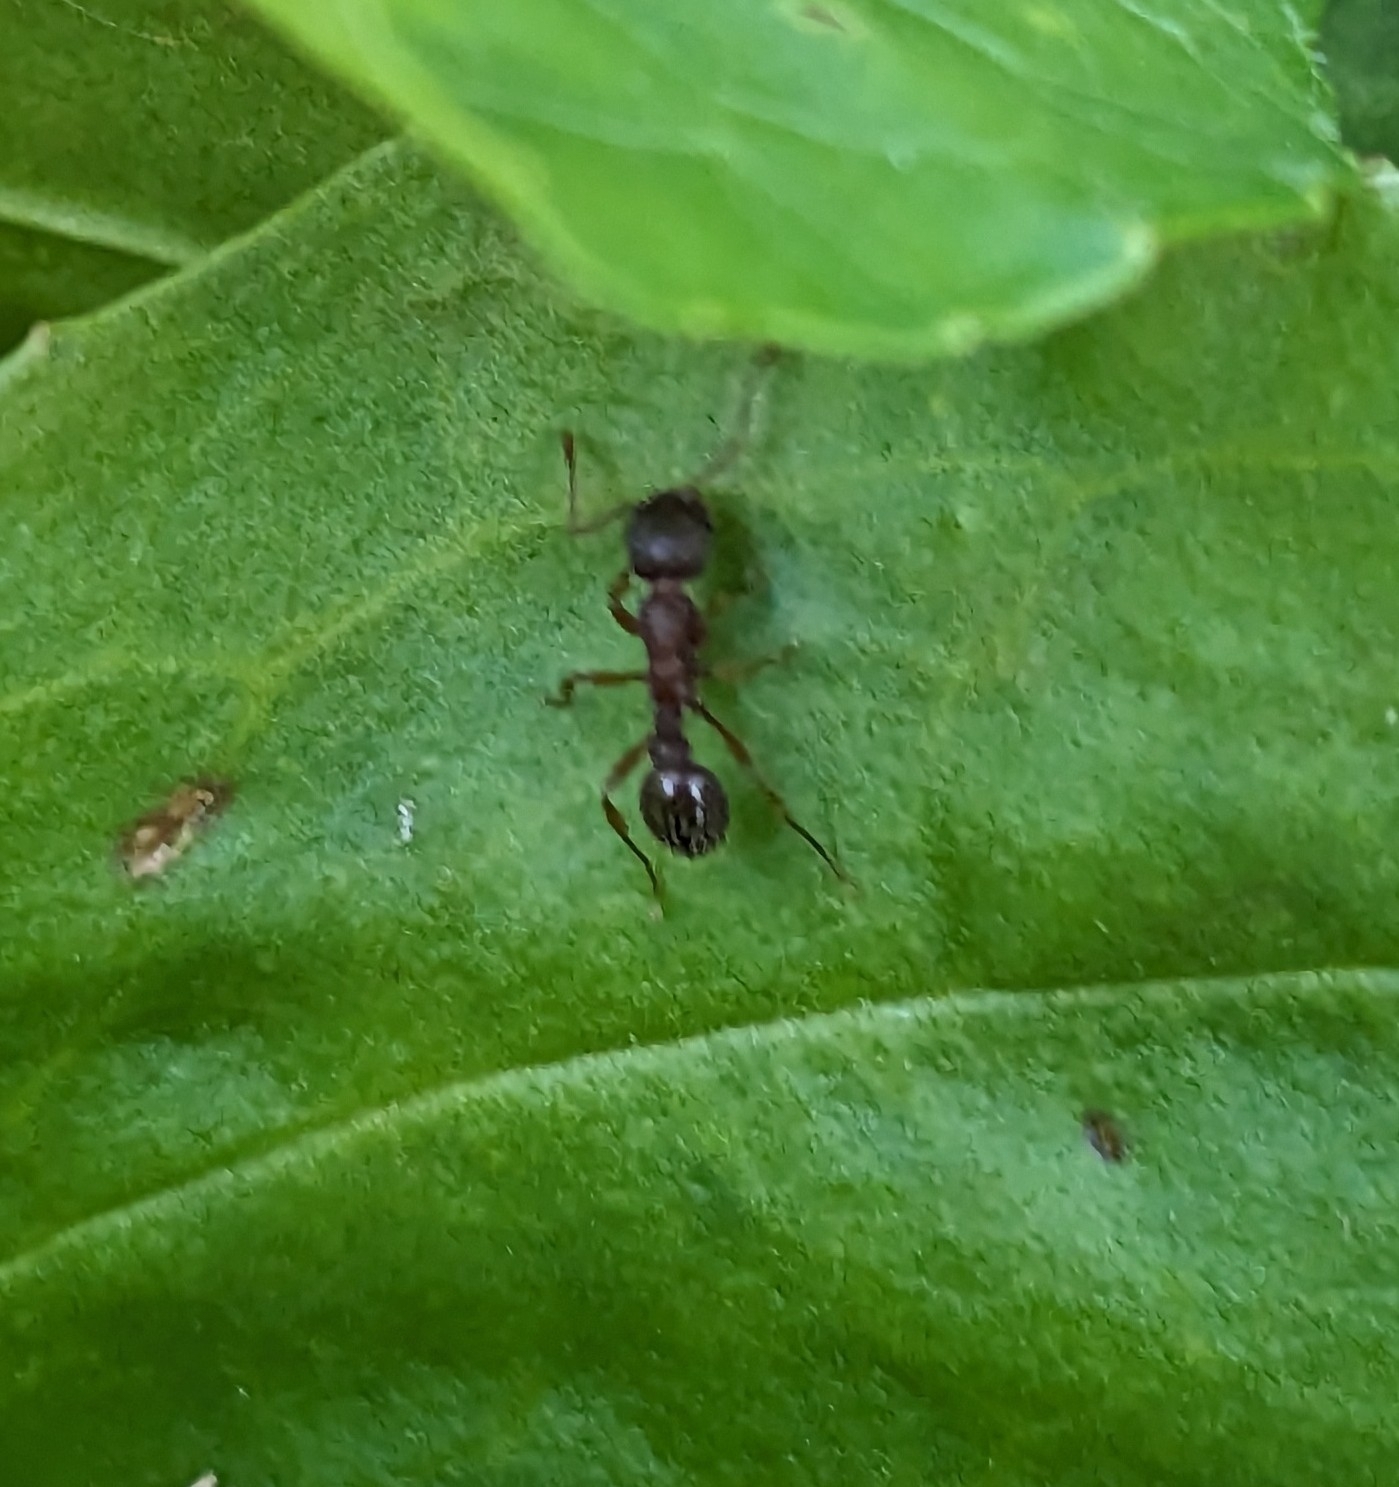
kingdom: Animalia
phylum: Arthropoda
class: Insecta
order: Hymenoptera
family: Formicidae
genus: Myrmica
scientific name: Myrmica
